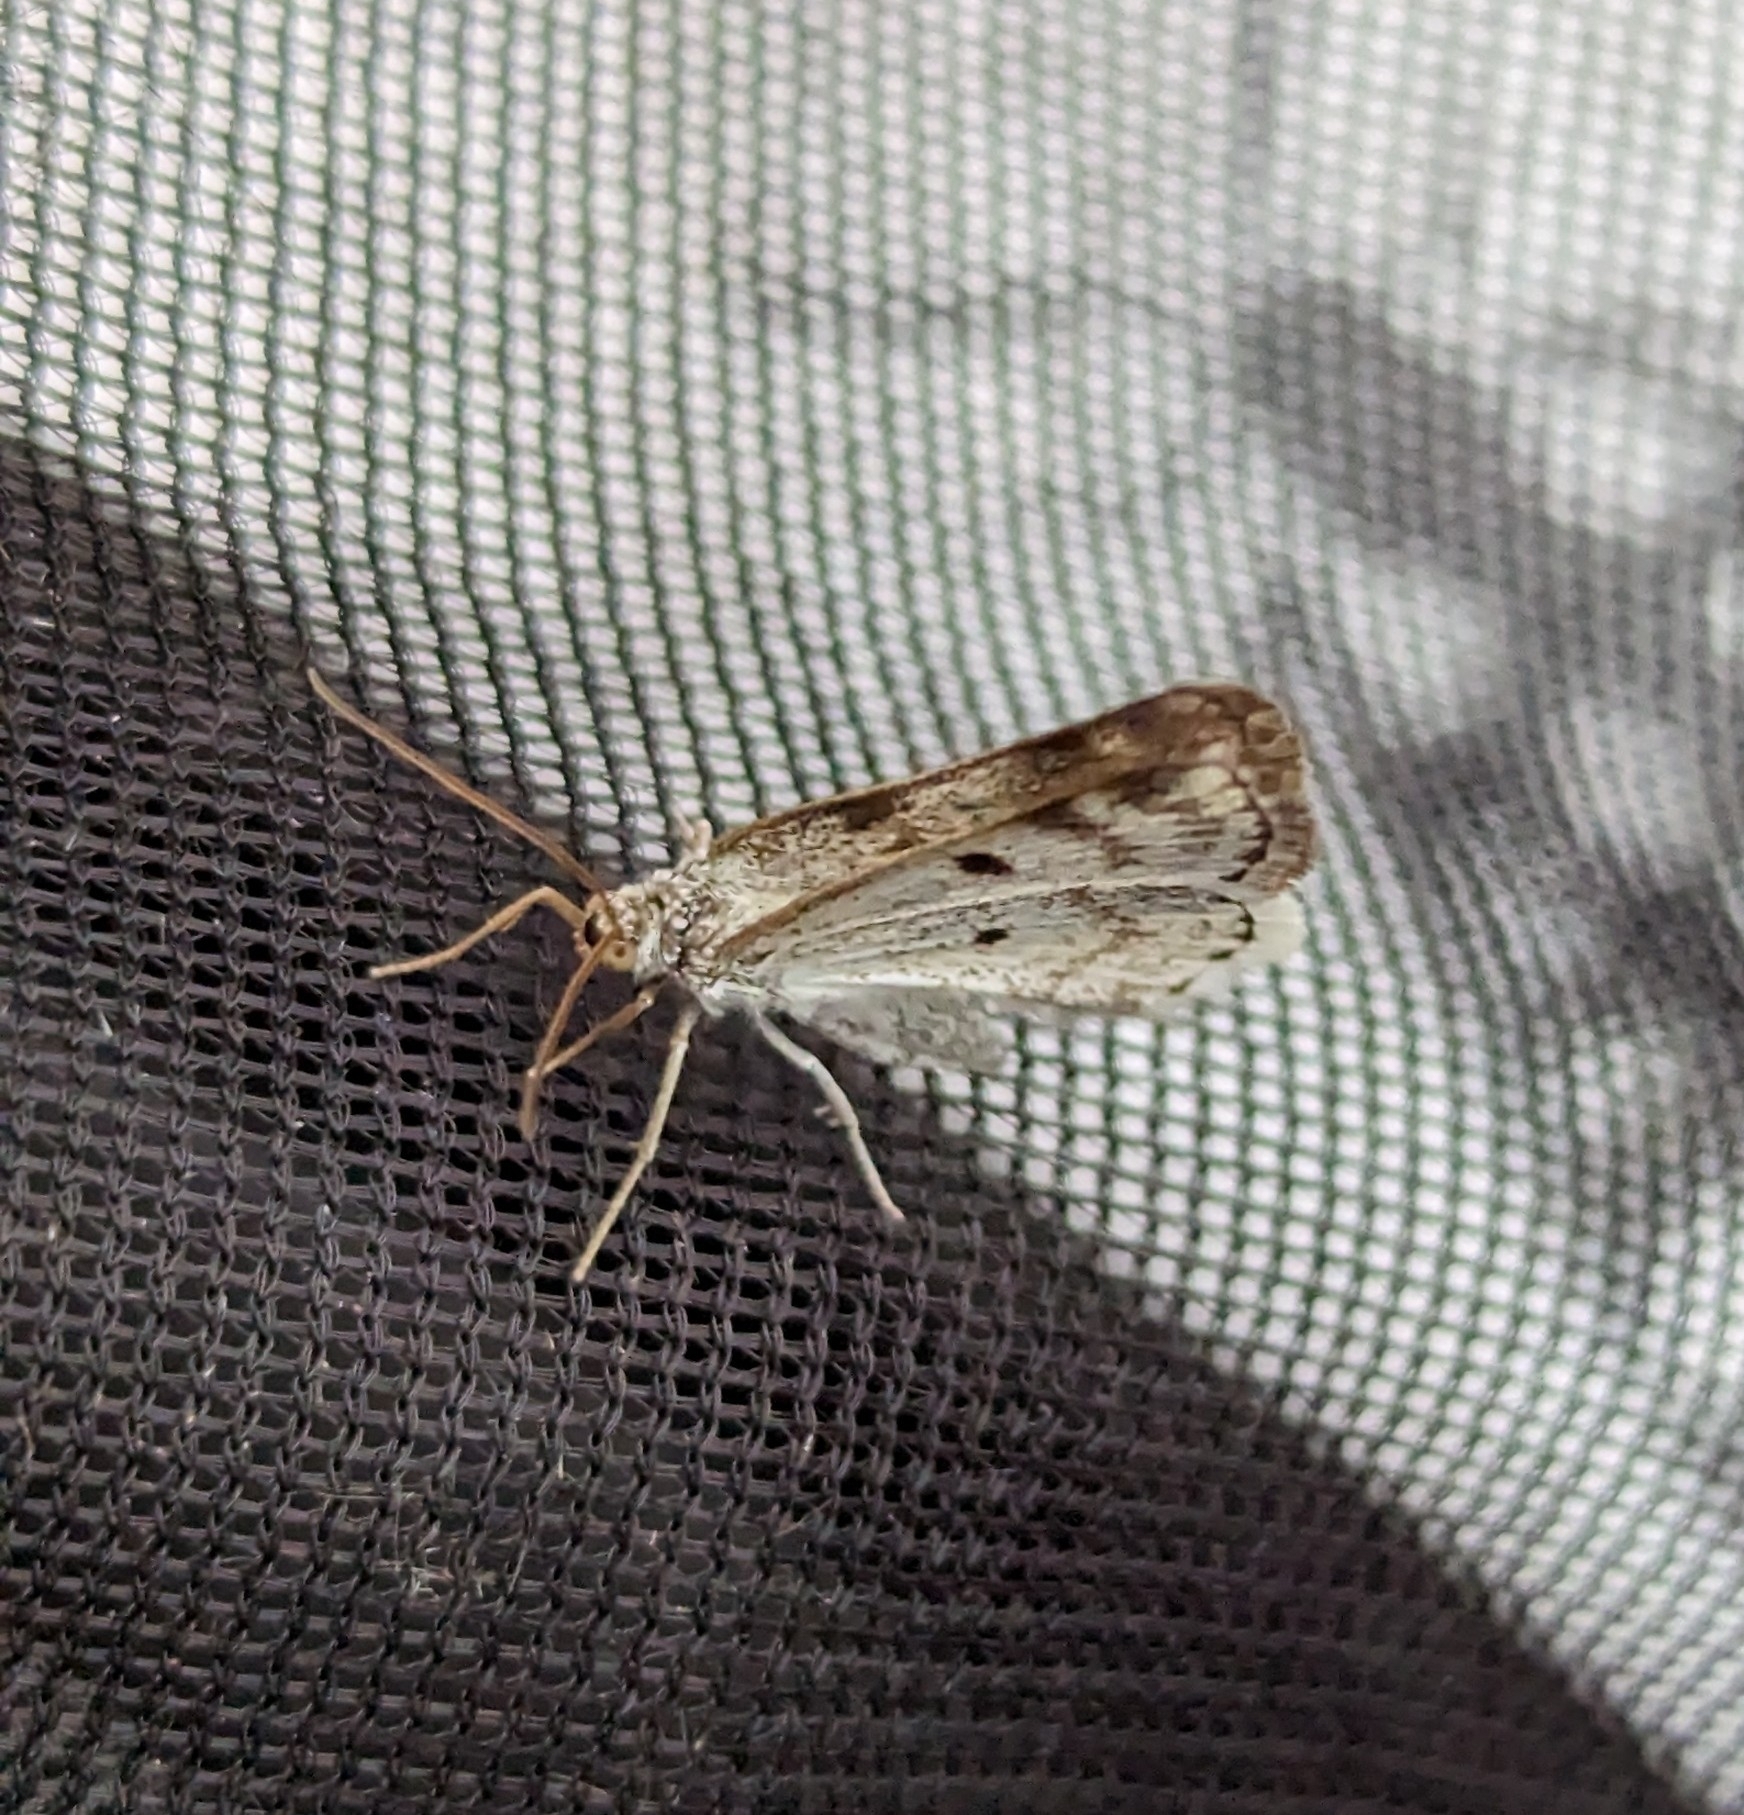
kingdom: Animalia
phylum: Arthropoda
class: Insecta
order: Lepidoptera
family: Geometridae
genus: Lomographa
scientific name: Lomographa semiclarata
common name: Bluish spring moth
